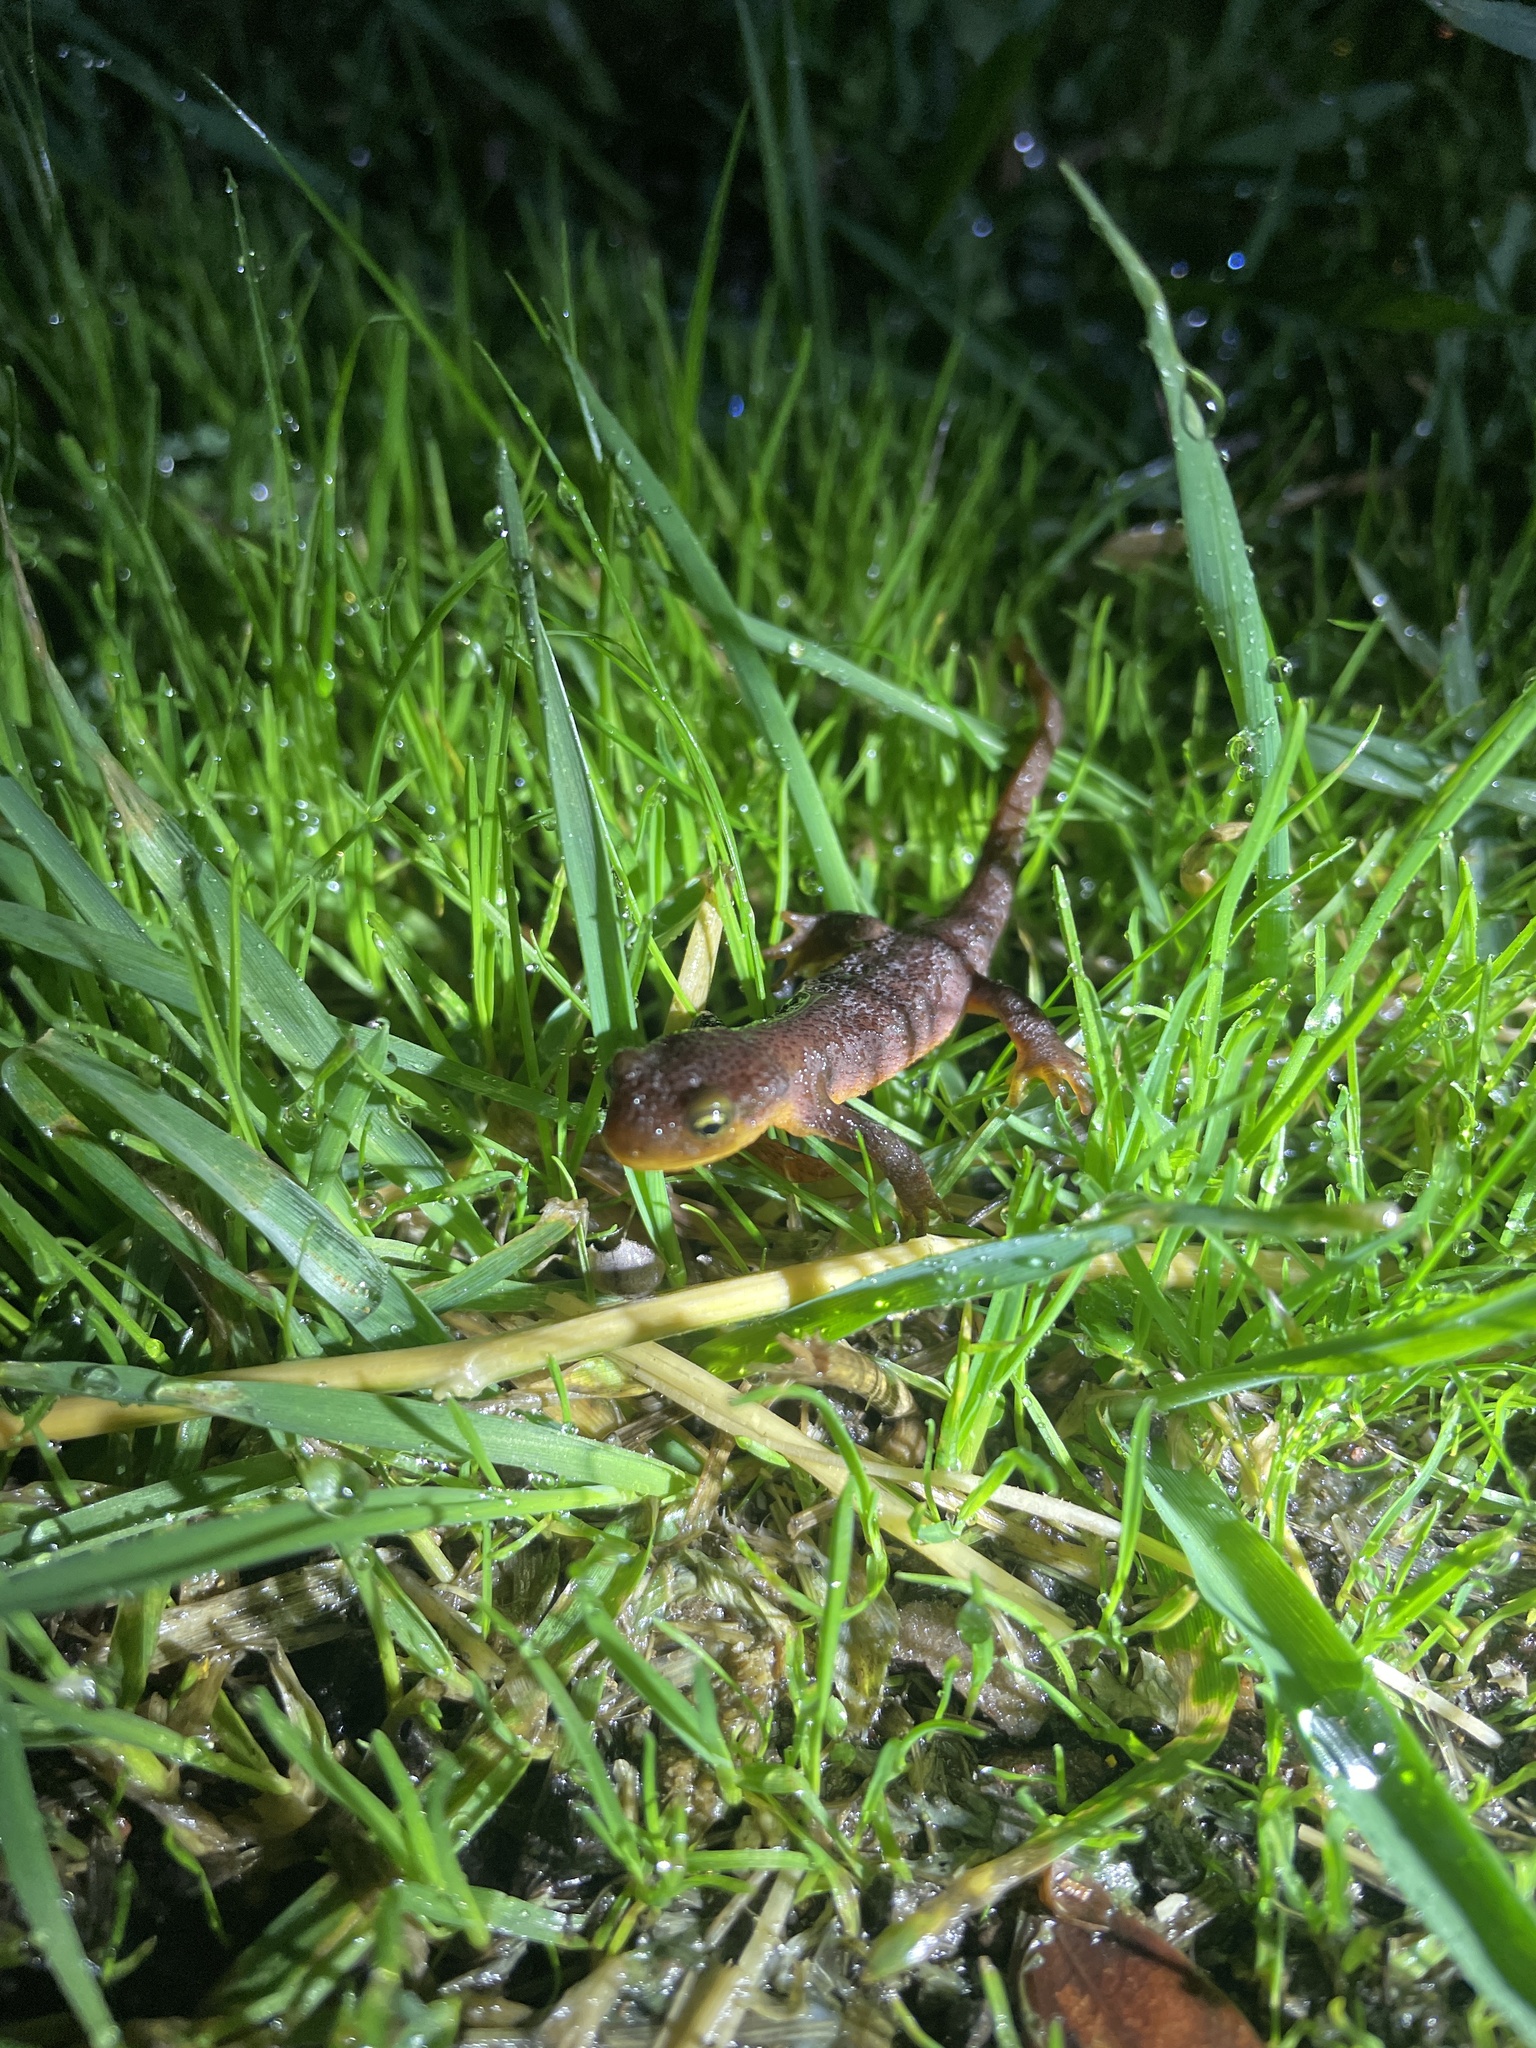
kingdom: Animalia
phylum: Chordata
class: Amphibia
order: Caudata
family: Salamandridae
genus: Taricha
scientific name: Taricha torosa
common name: California newt
